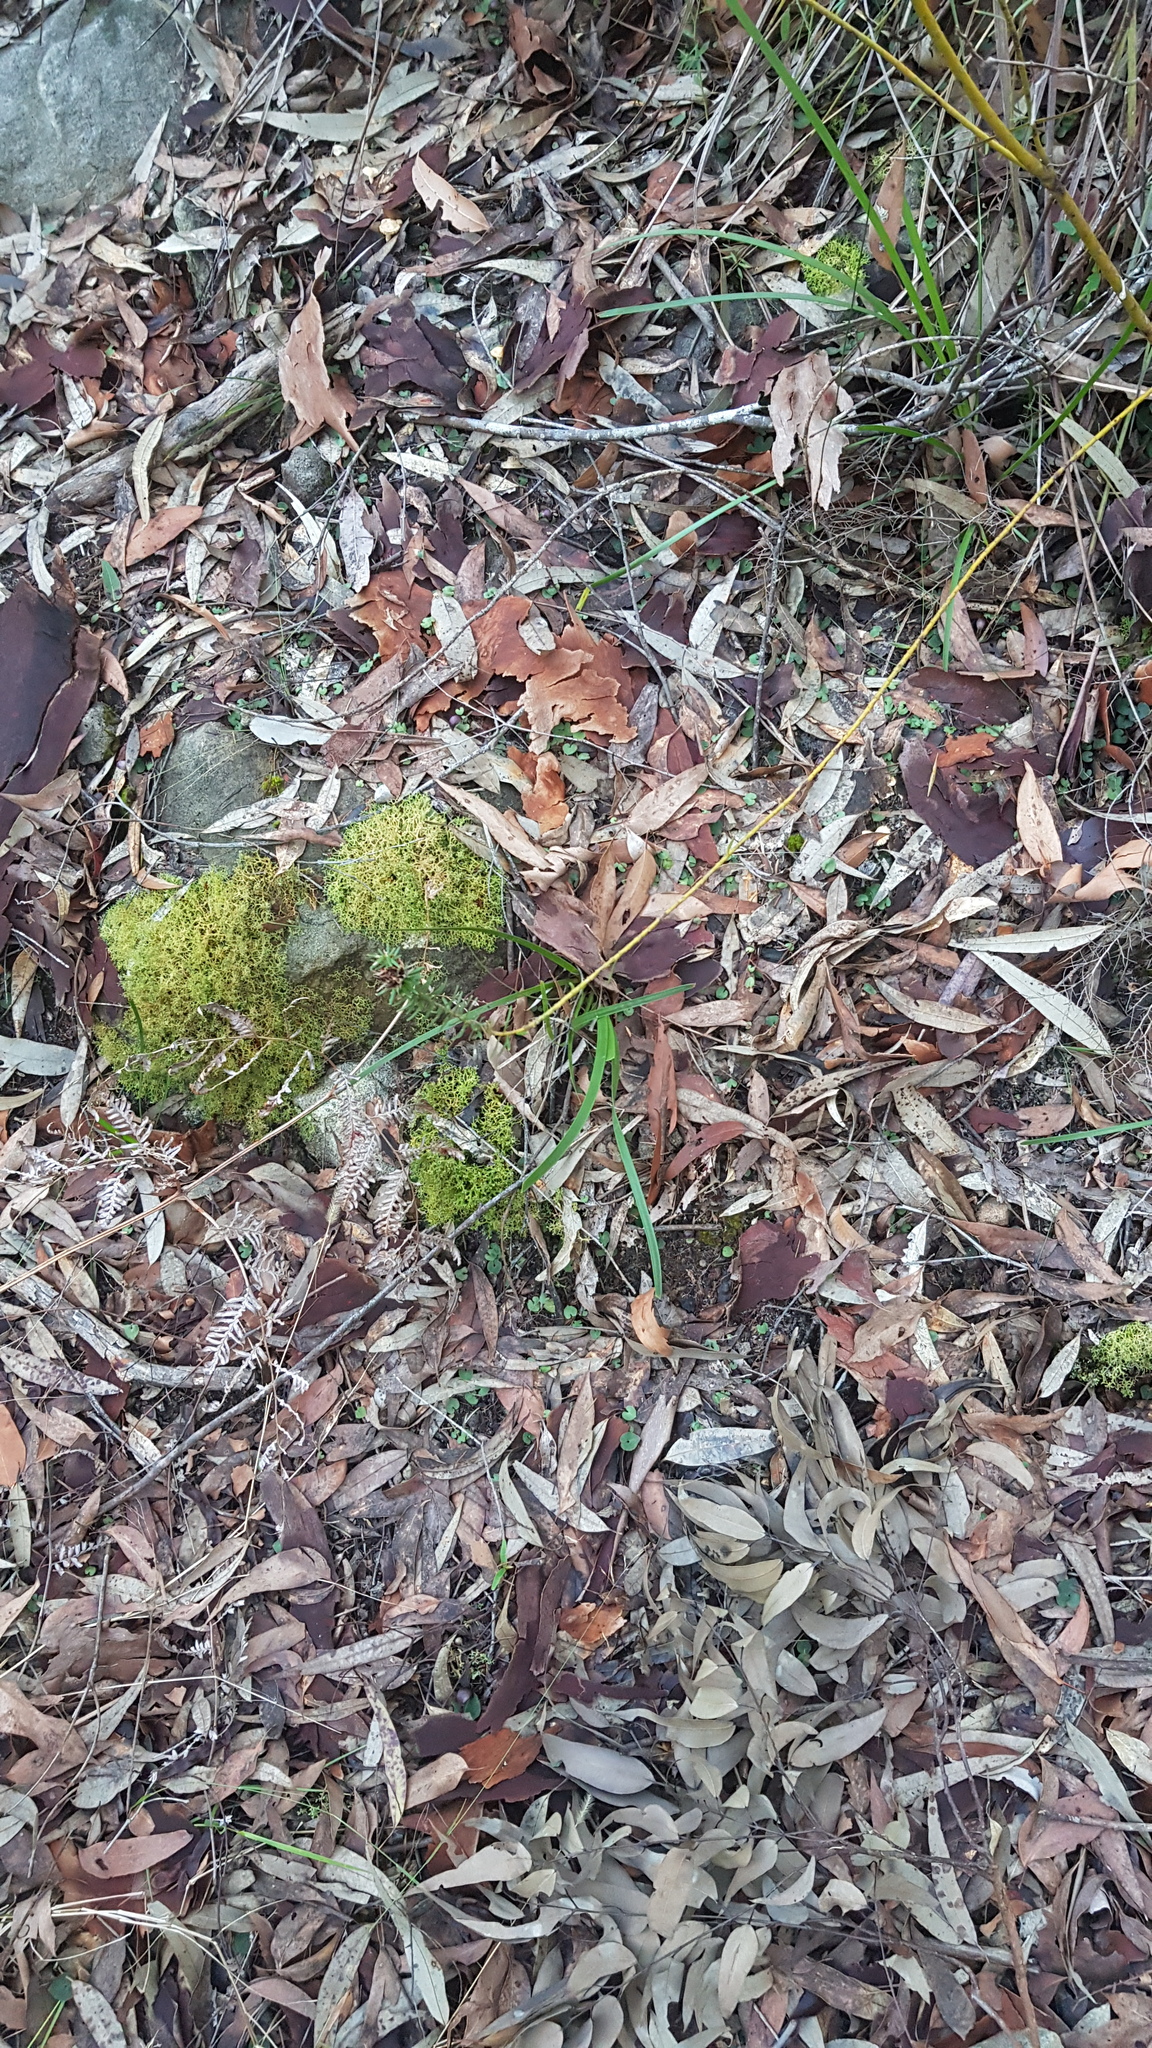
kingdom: Plantae
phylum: Tracheophyta
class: Liliopsida
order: Asparagales
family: Orchidaceae
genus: Corybas
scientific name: Corybas aconitiflorus
